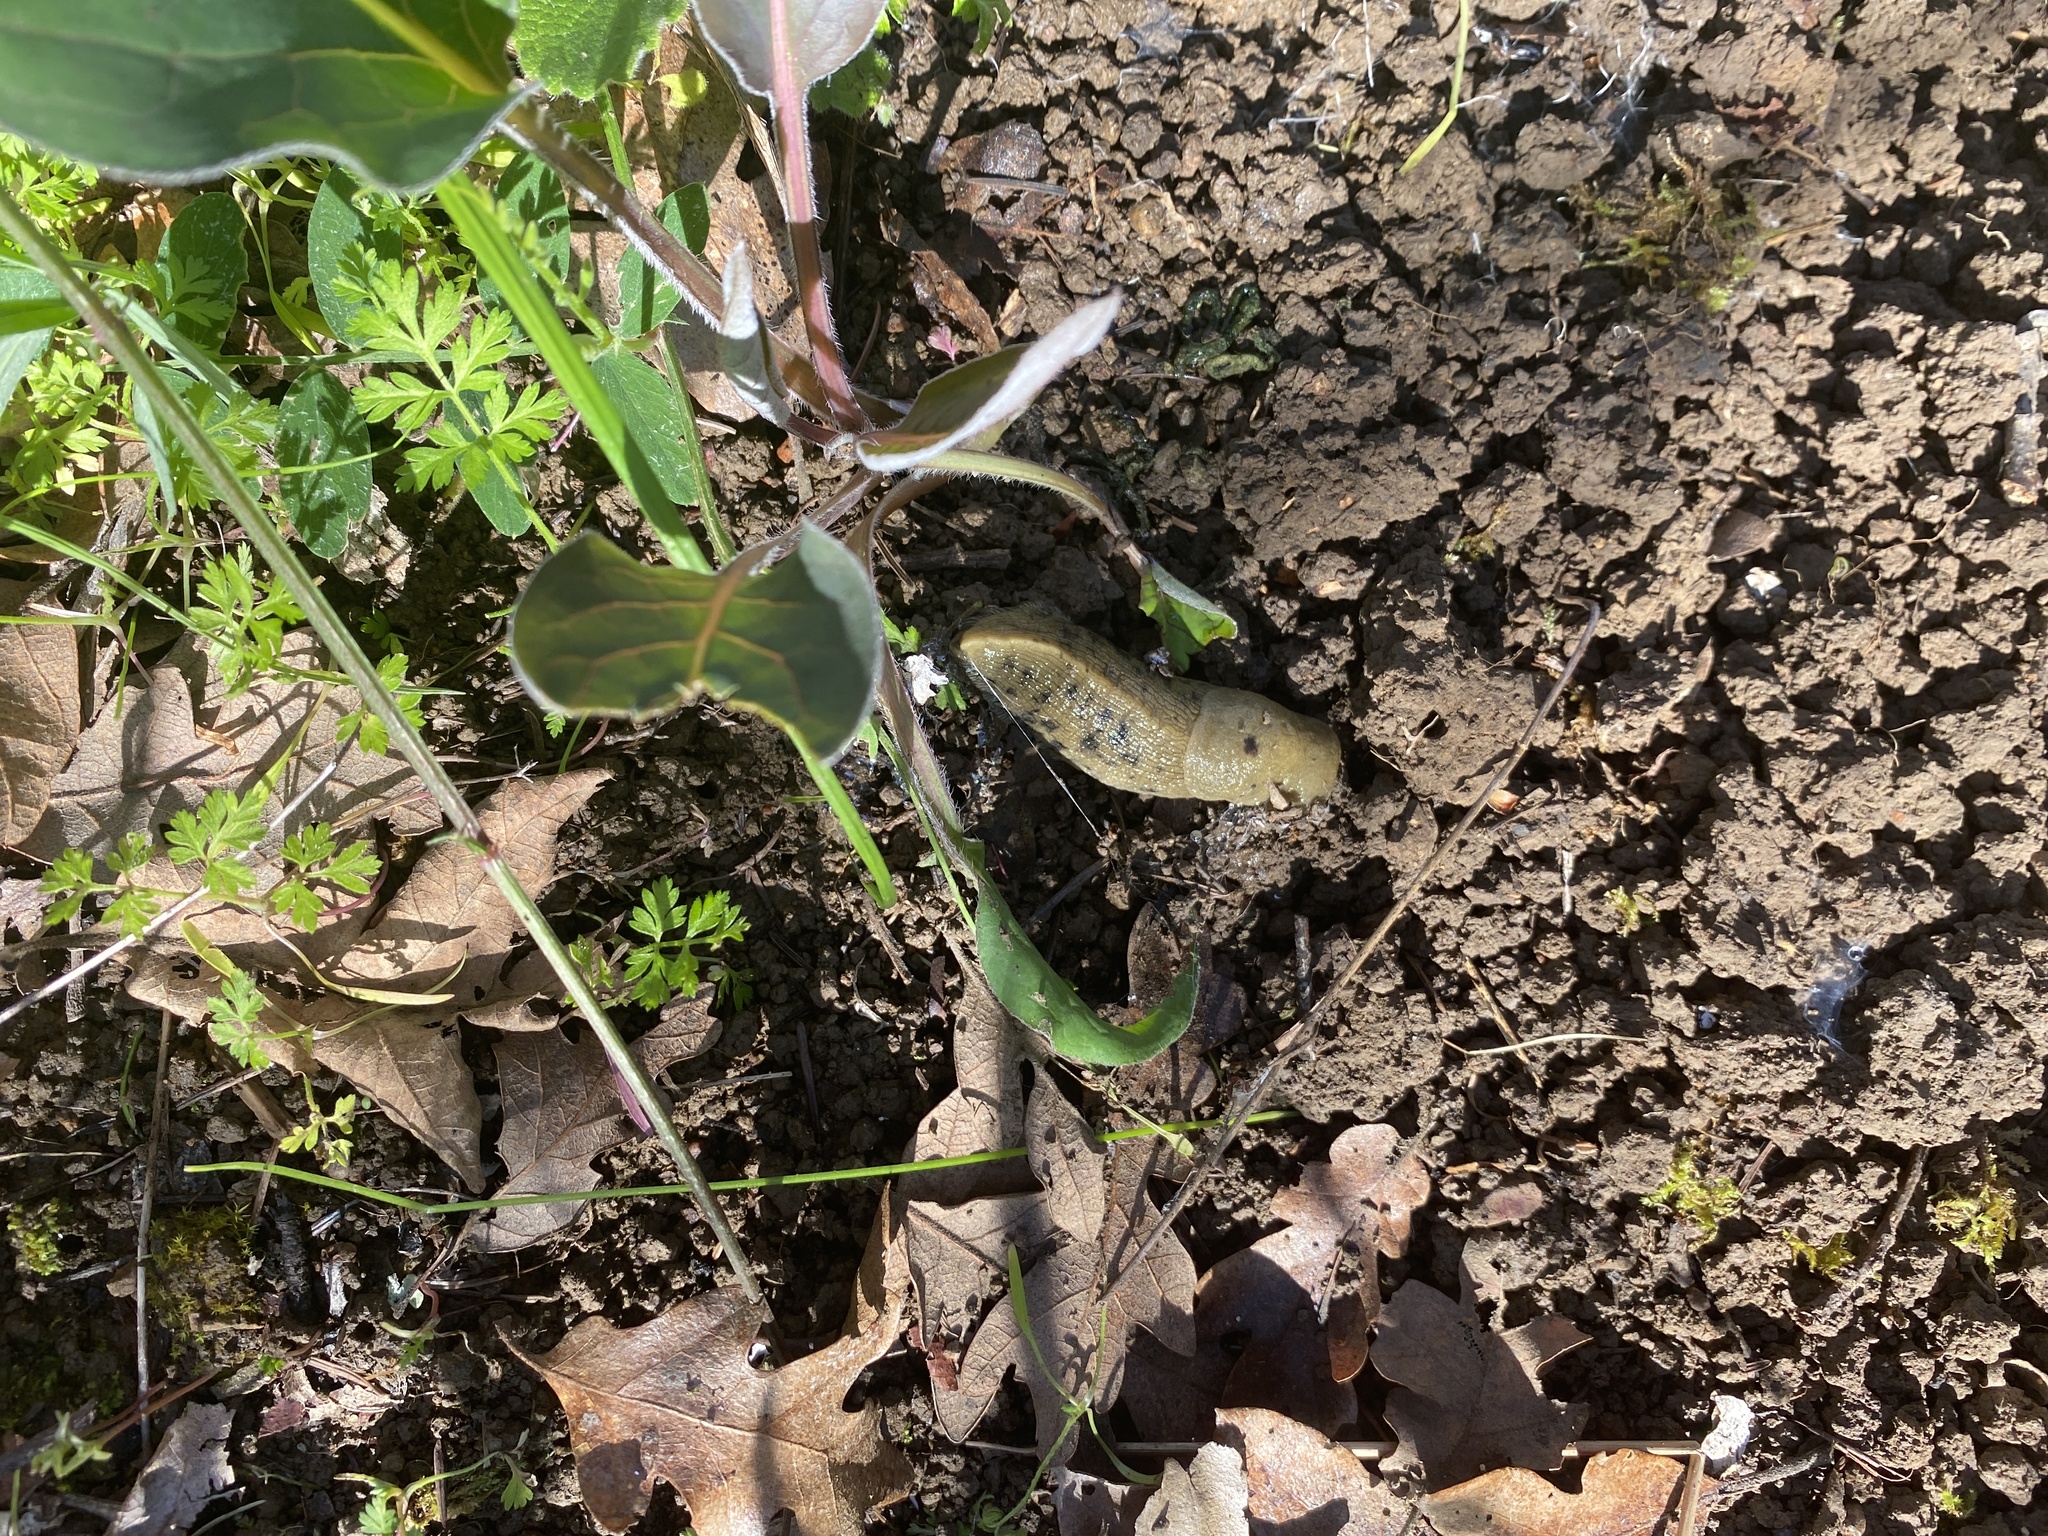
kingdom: Animalia
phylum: Mollusca
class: Gastropoda
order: Stylommatophora
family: Ariolimacidae
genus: Ariolimax
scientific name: Ariolimax buttoni
